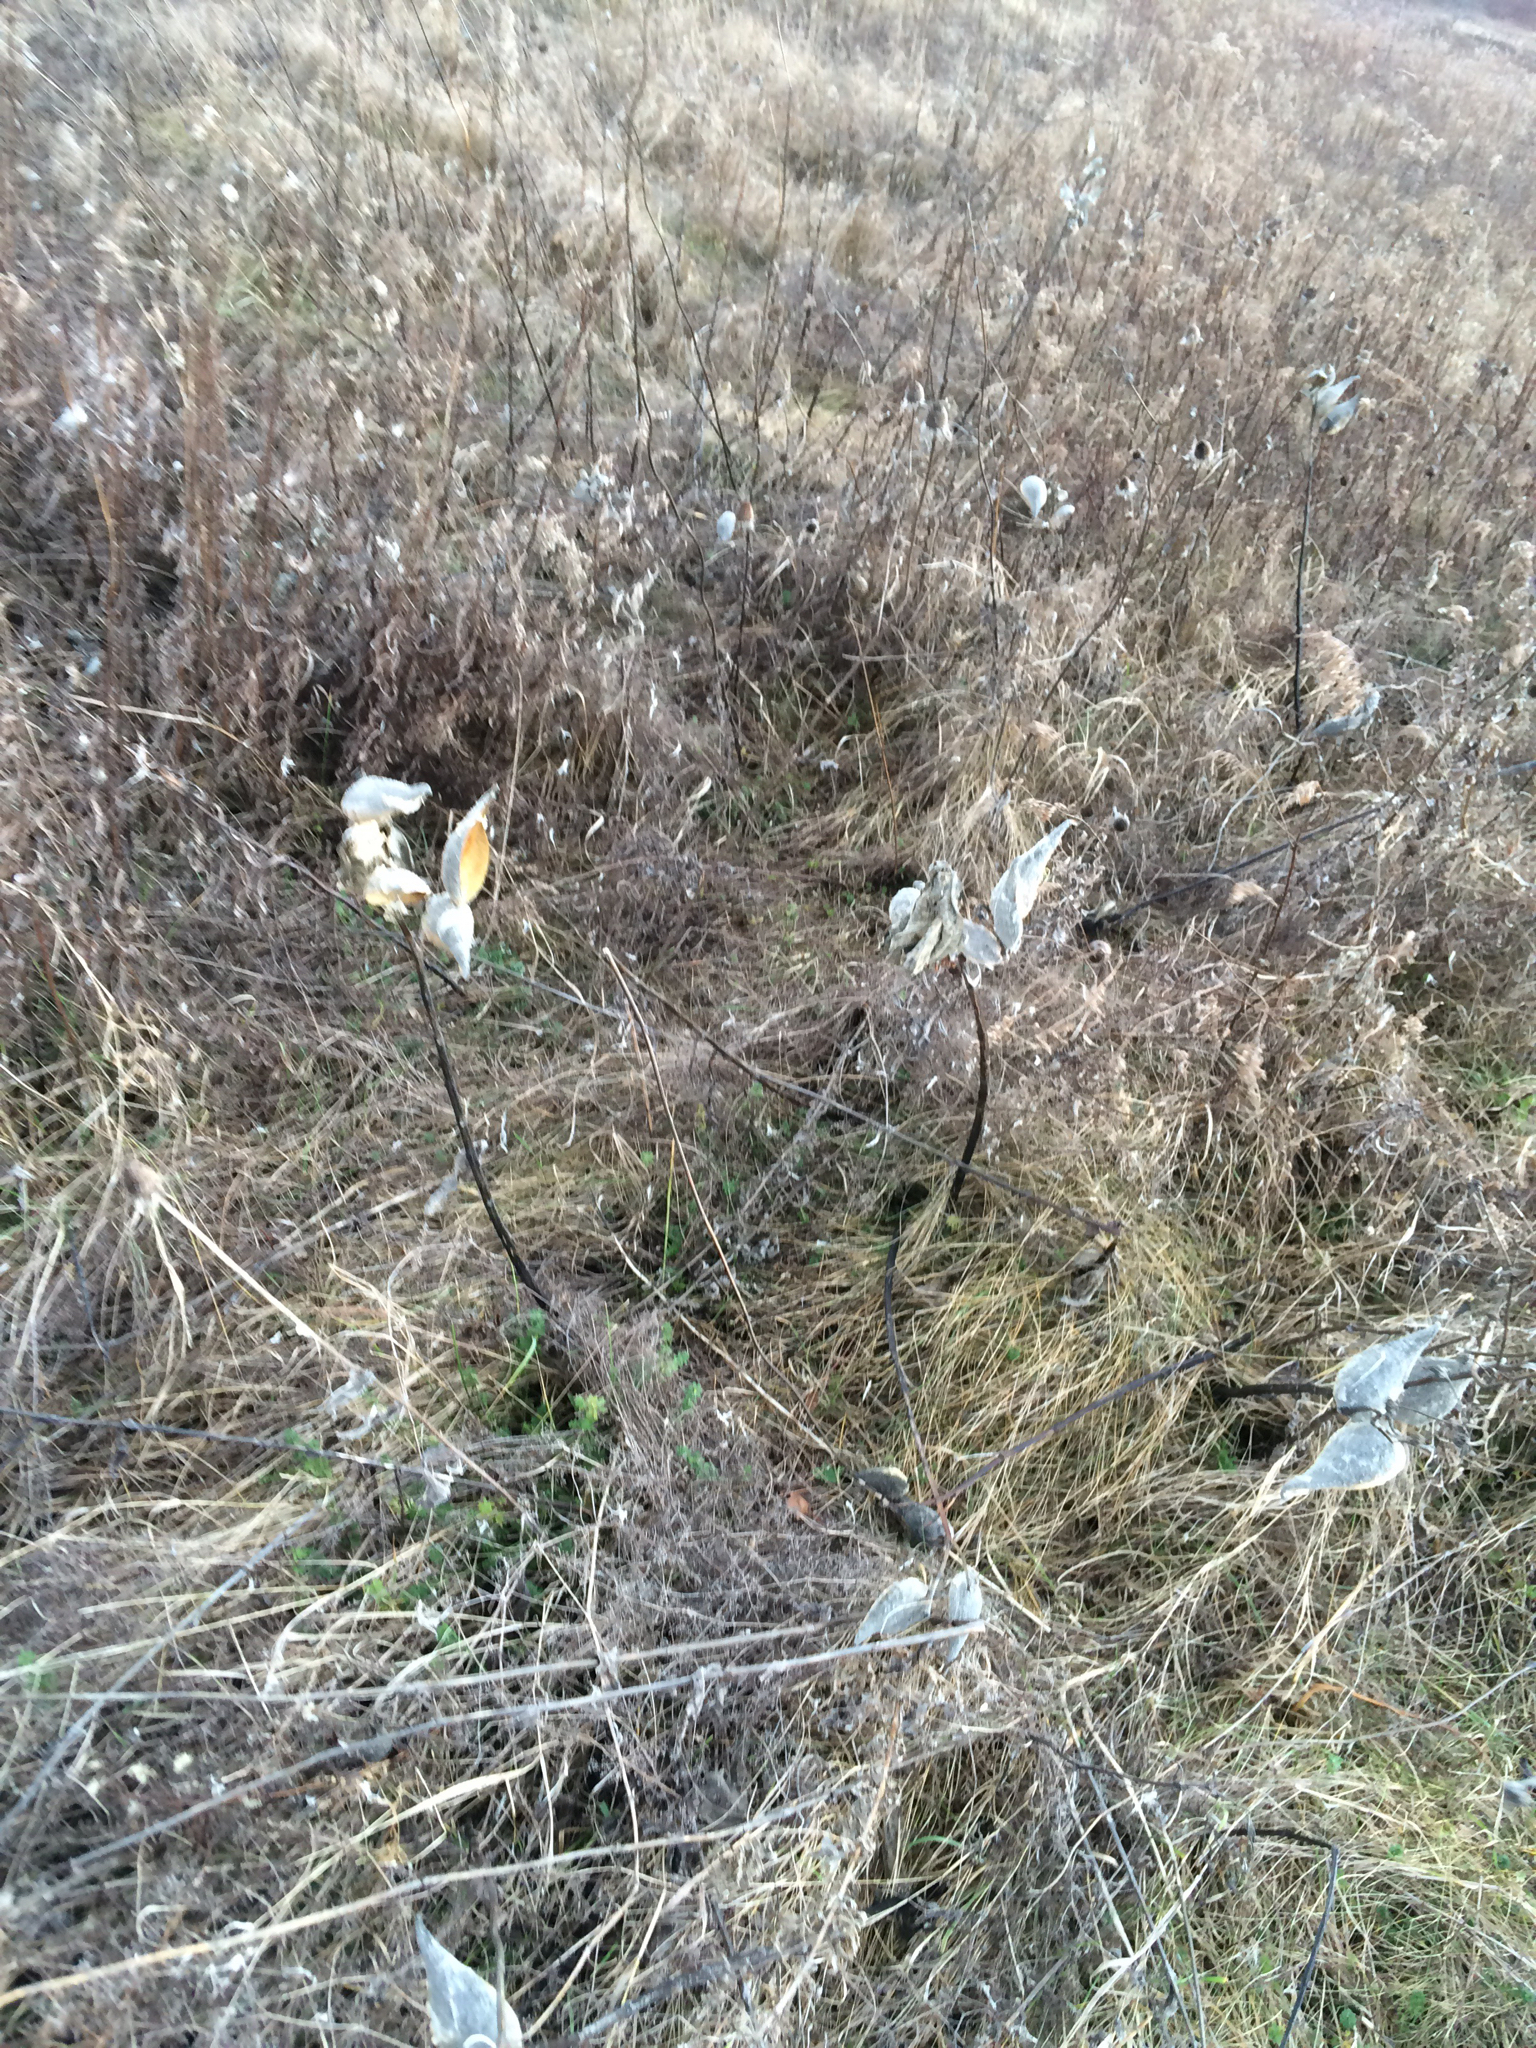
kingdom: Plantae
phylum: Tracheophyta
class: Magnoliopsida
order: Gentianales
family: Apocynaceae
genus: Asclepias
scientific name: Asclepias syriaca
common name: Common milkweed
